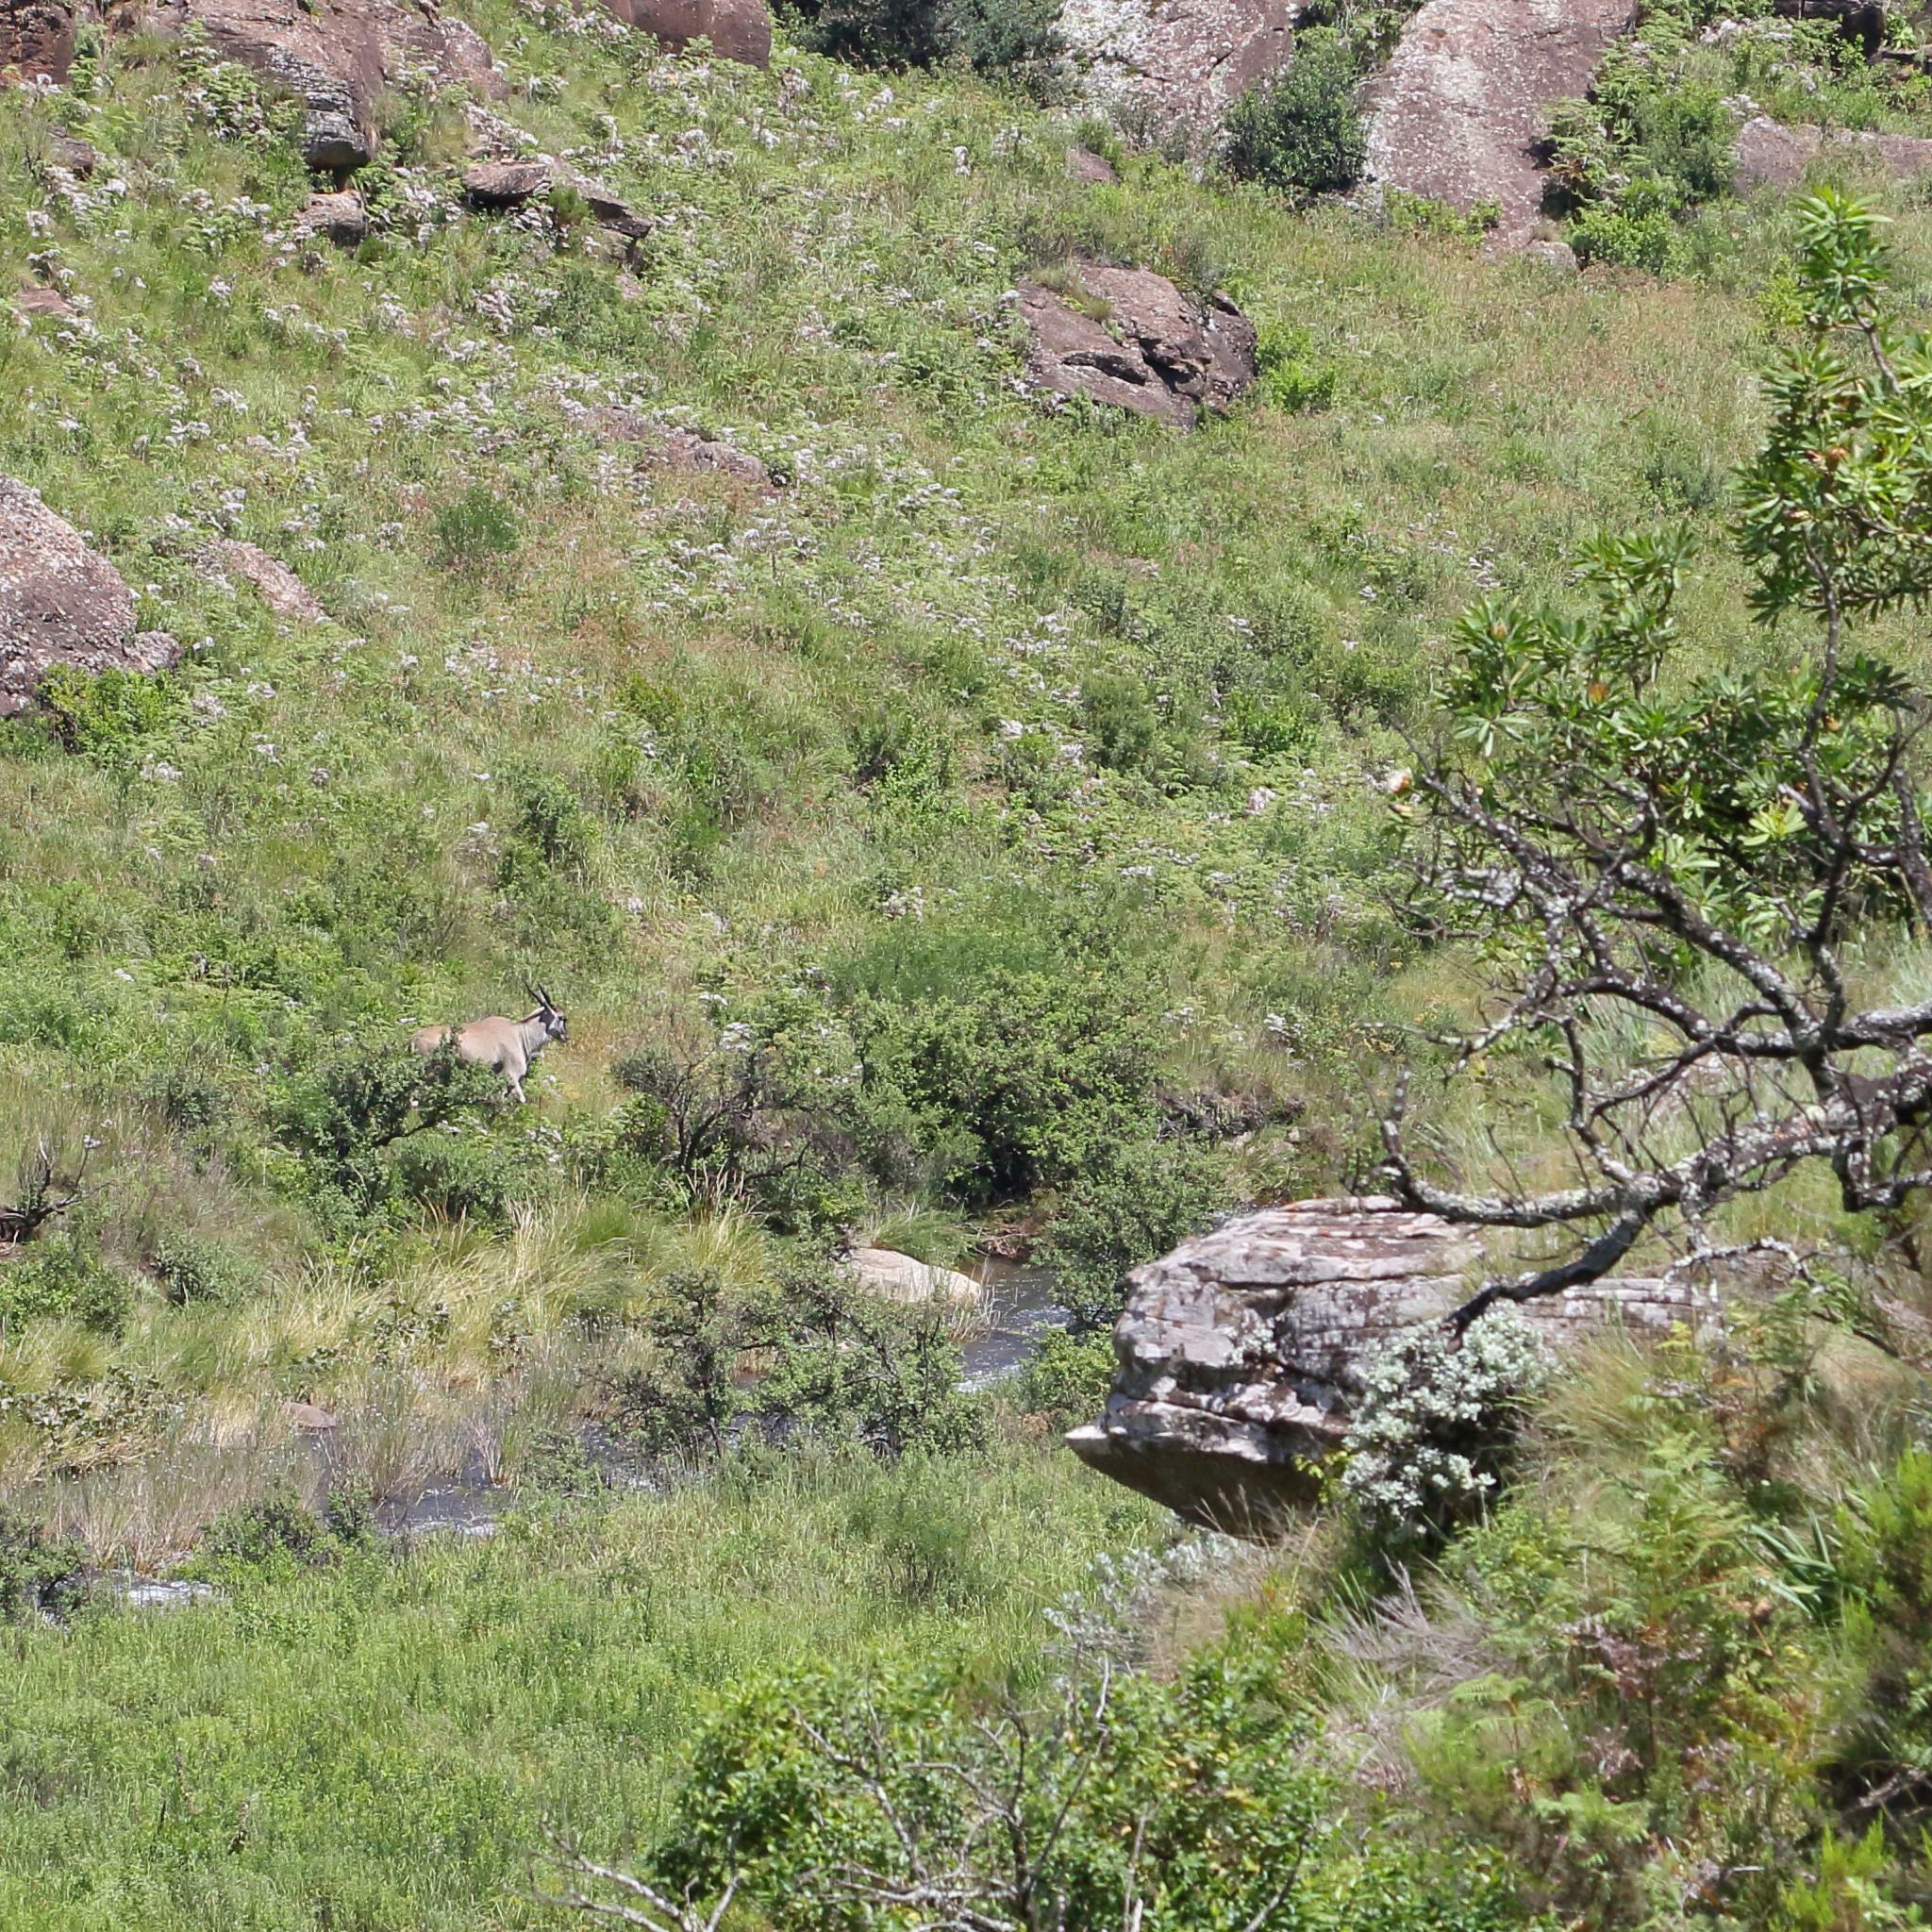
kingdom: Animalia
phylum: Chordata
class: Mammalia
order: Artiodactyla
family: Bovidae
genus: Taurotragus
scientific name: Taurotragus oryx
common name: Common eland
